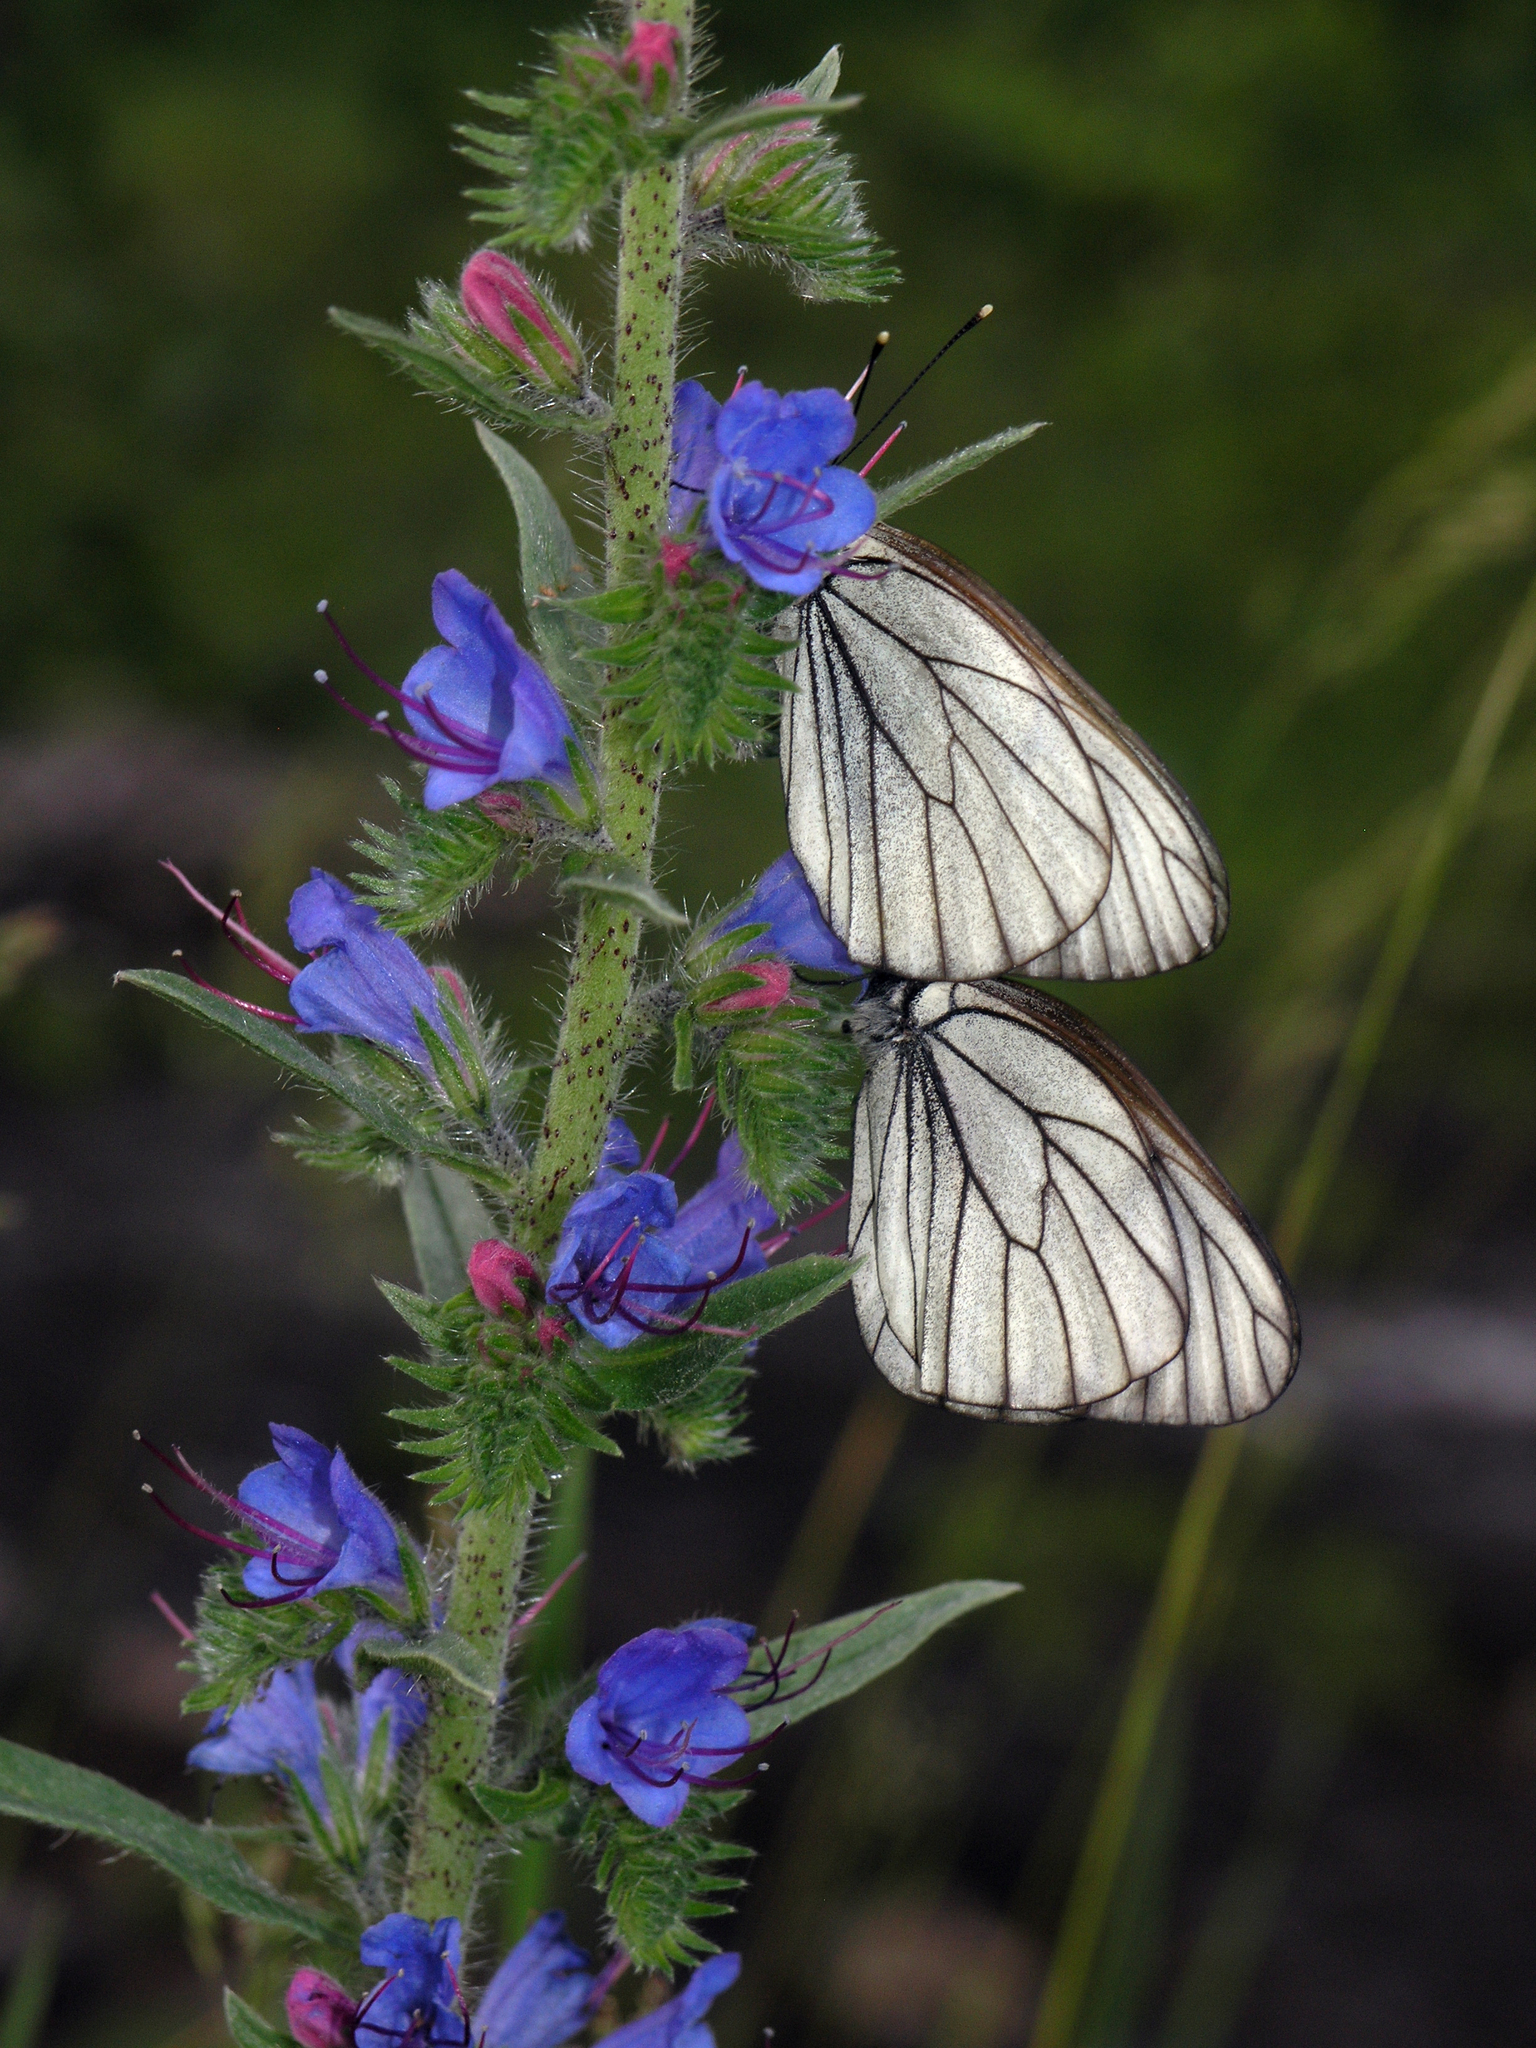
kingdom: Animalia
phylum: Arthropoda
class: Insecta
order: Lepidoptera
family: Pieridae
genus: Aporia
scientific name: Aporia crataegi
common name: Black-veined white
